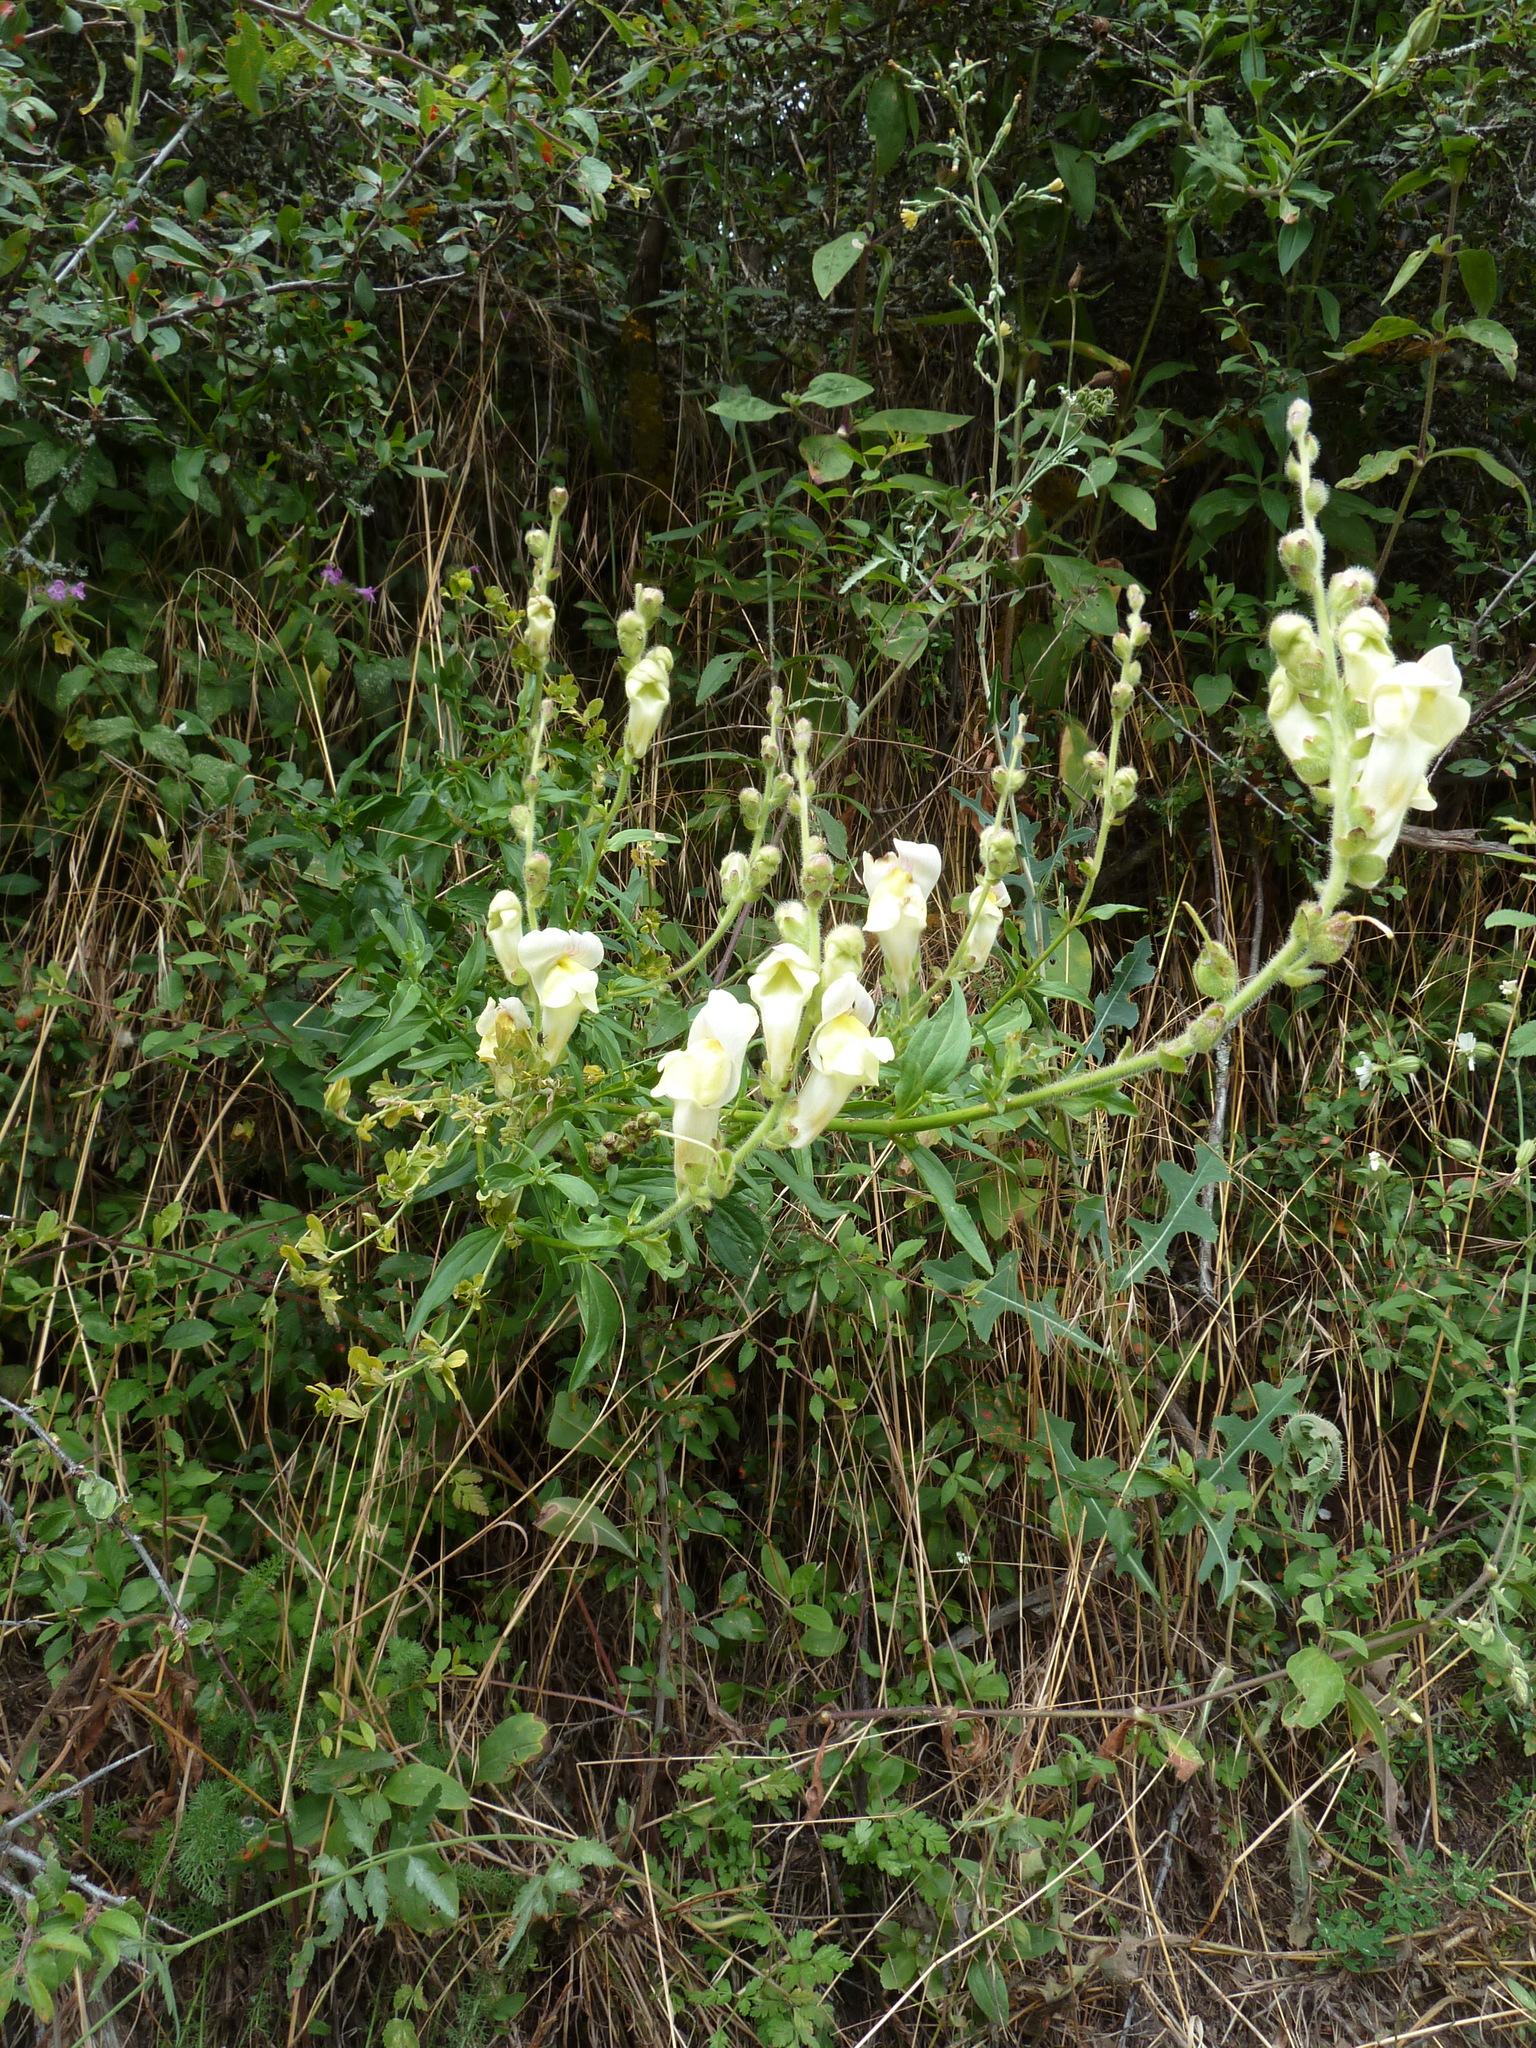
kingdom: Plantae
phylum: Tracheophyta
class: Magnoliopsida
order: Lamiales
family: Plantaginaceae
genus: Antirrhinum
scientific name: Antirrhinum majus
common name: Snapdragon
